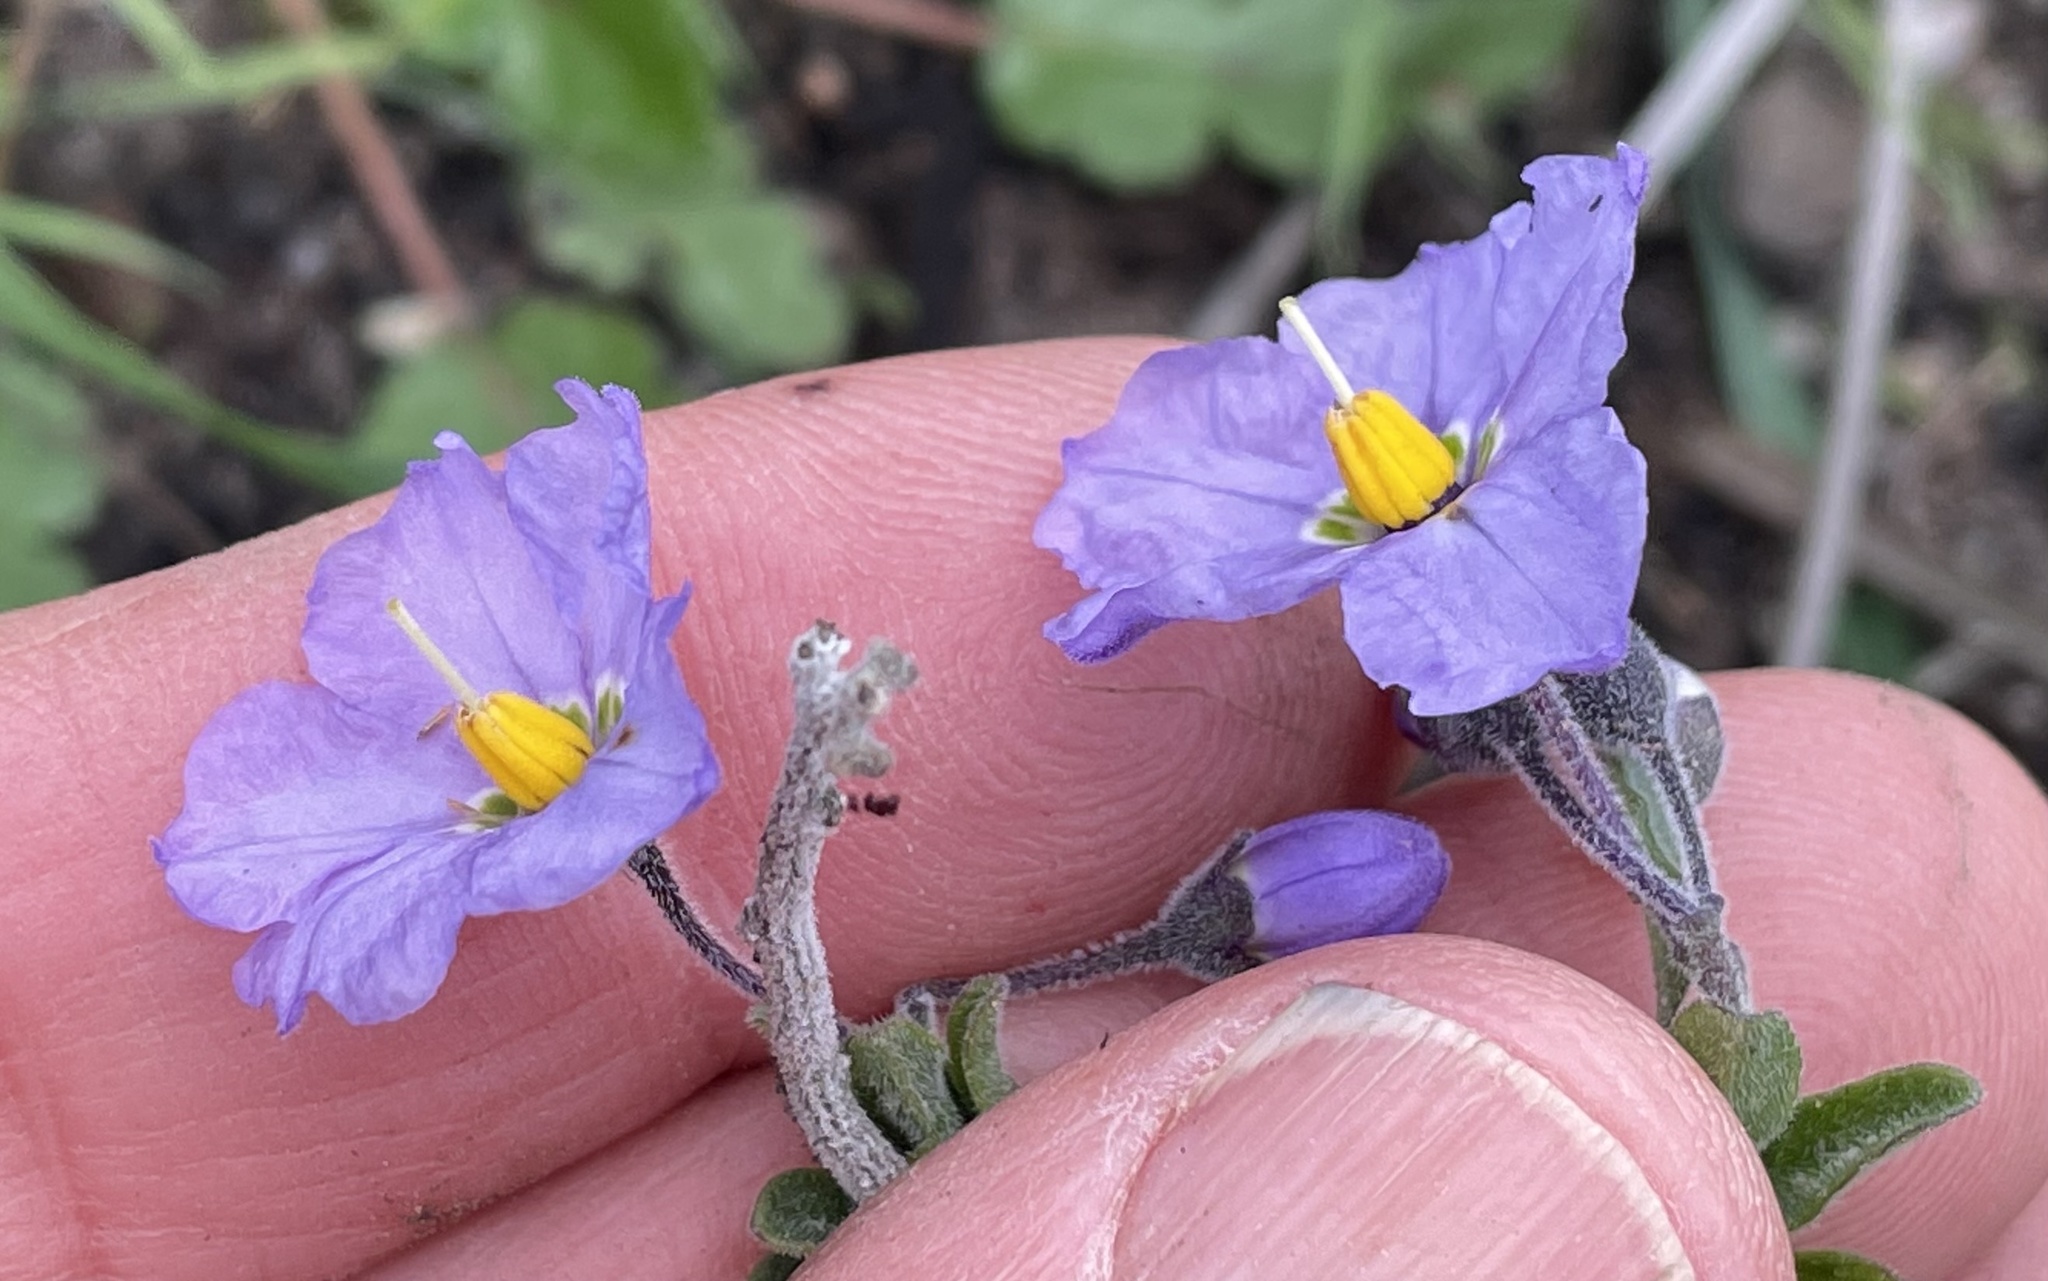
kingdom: Plantae
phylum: Tracheophyta
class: Magnoliopsida
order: Solanales
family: Solanaceae
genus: Solanum
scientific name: Solanum umbelliferum
